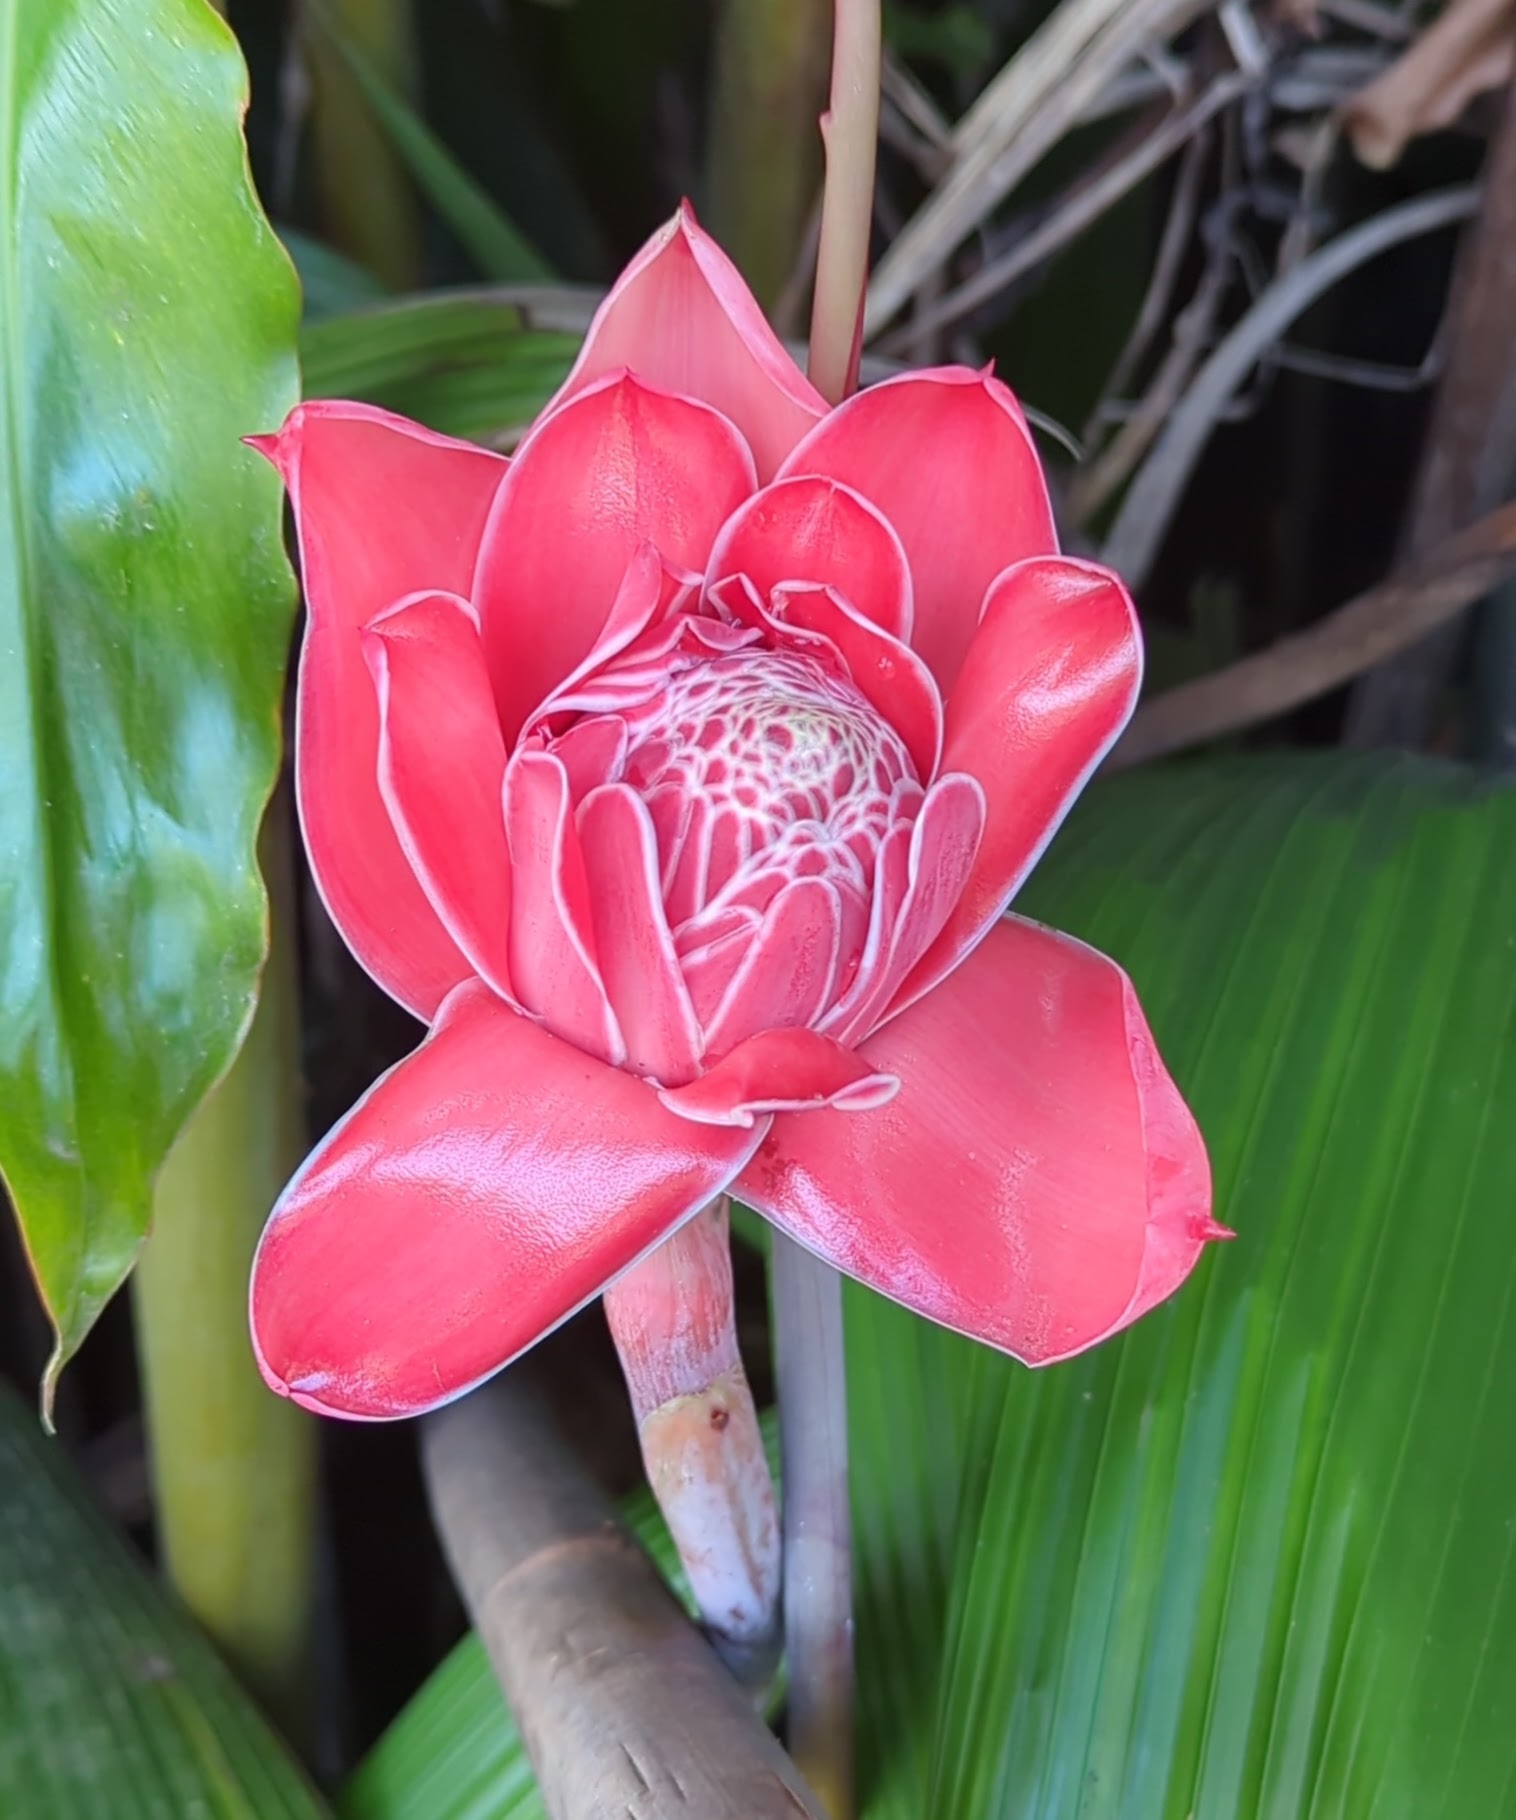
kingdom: Plantae
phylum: Tracheophyta
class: Liliopsida
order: Zingiberales
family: Zingiberaceae
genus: Etlingera
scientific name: Etlingera elatior
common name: Philippine waxflower
